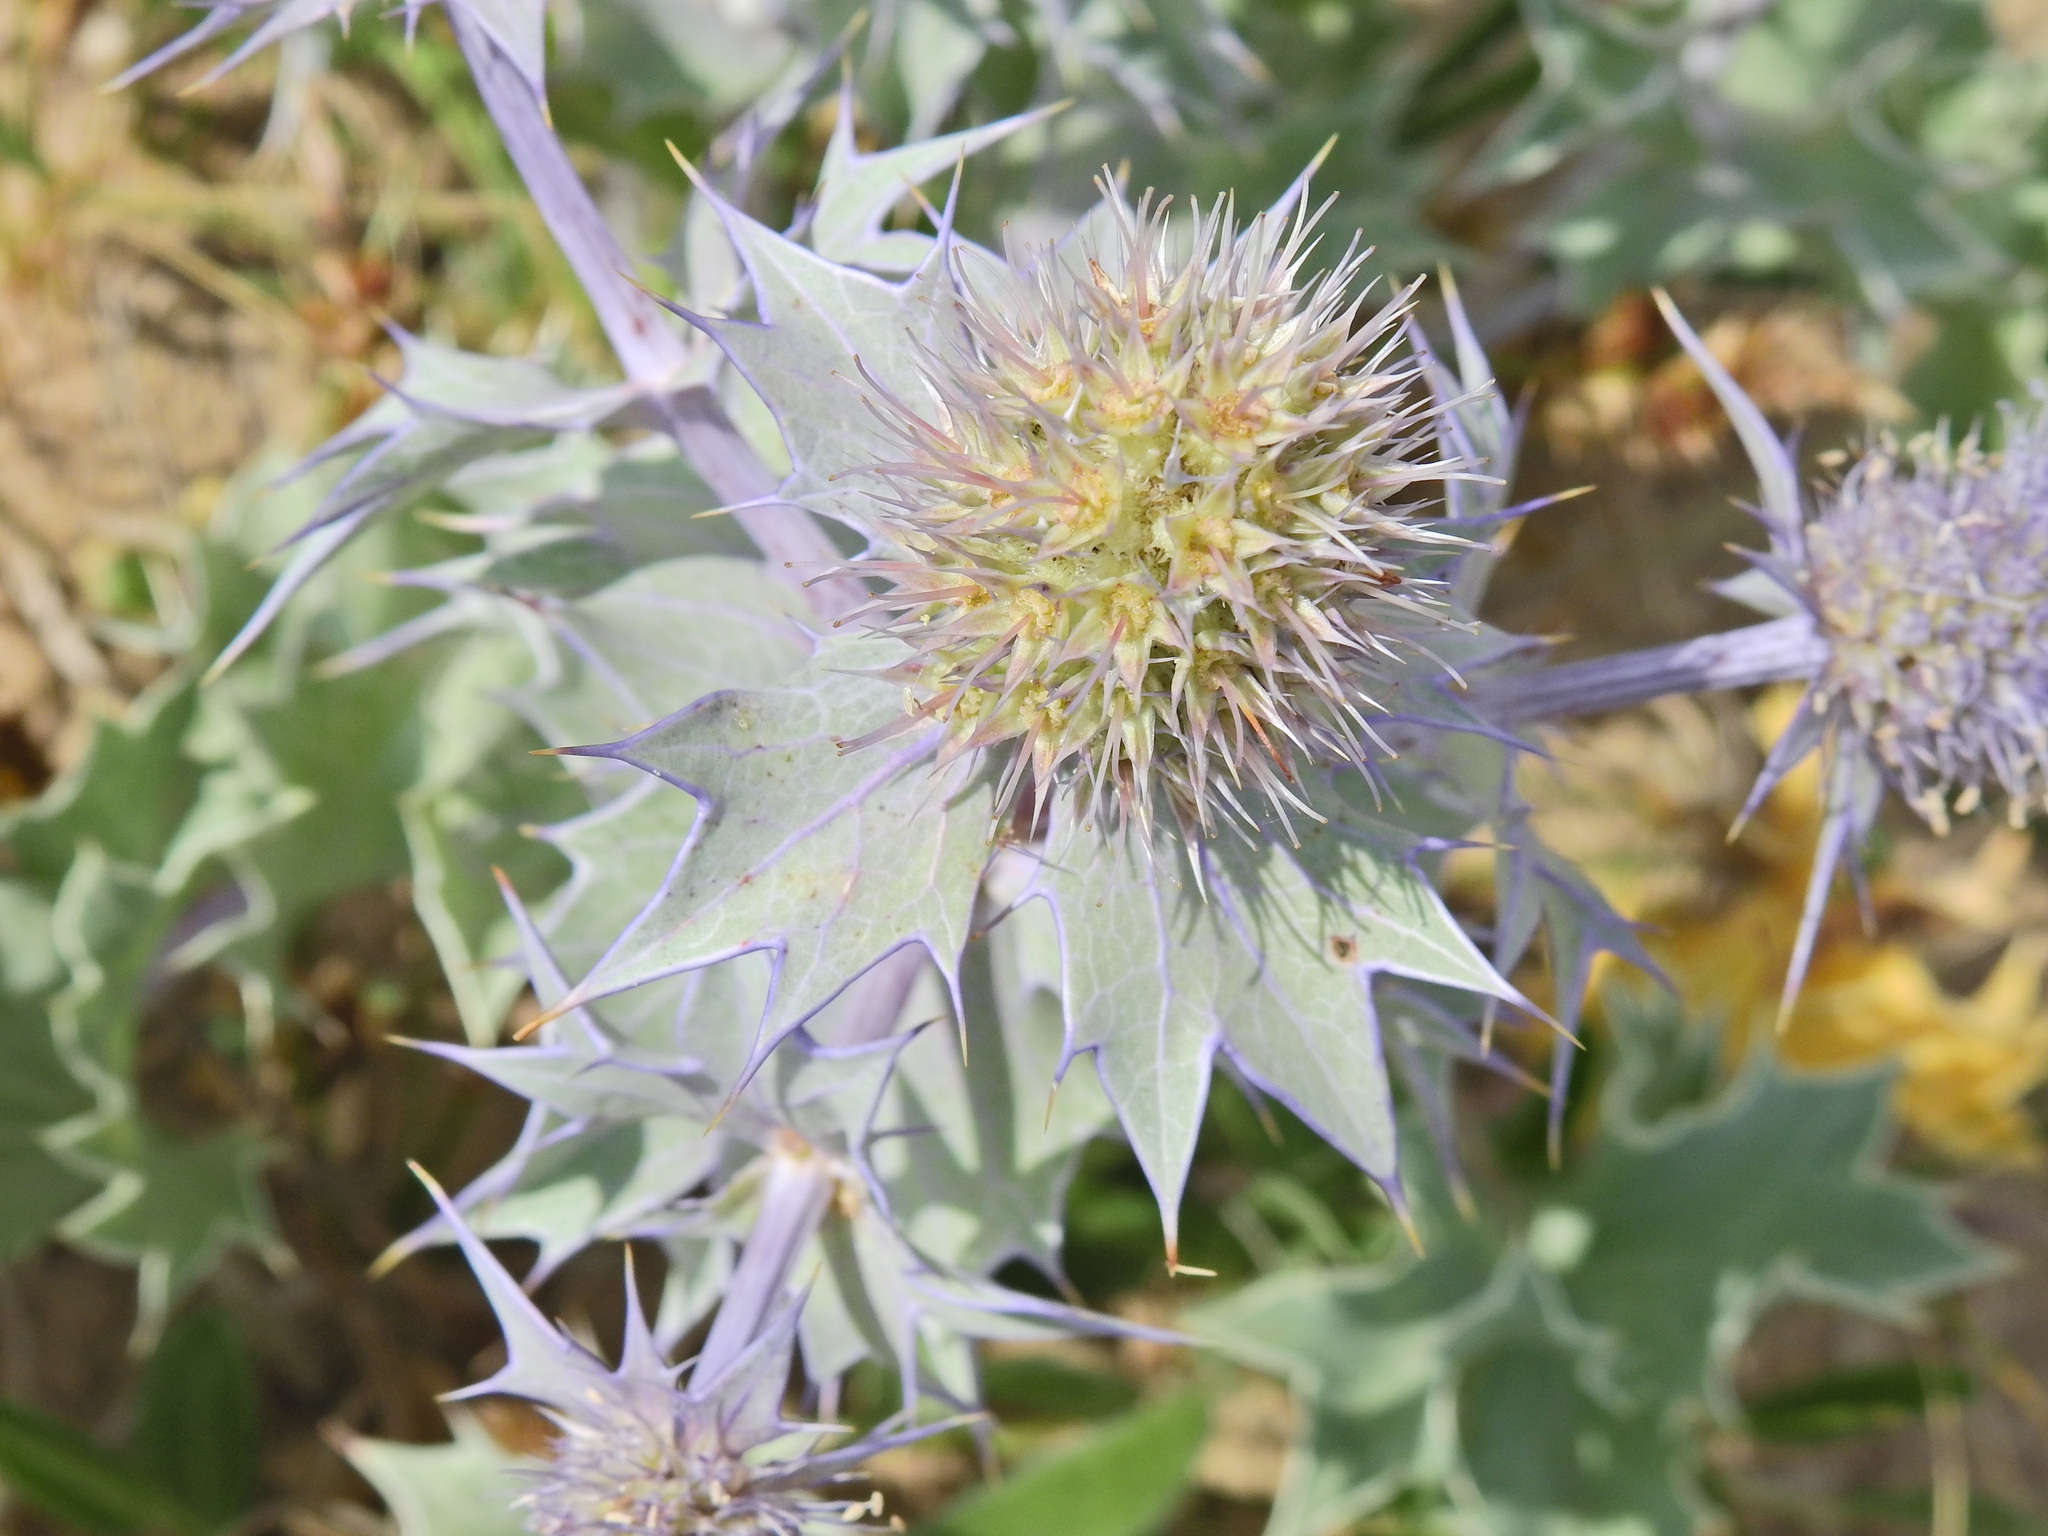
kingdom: Plantae
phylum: Tracheophyta
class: Magnoliopsida
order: Apiales
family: Apiaceae
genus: Eryngium
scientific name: Eryngium maritimum
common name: Sea-holly
